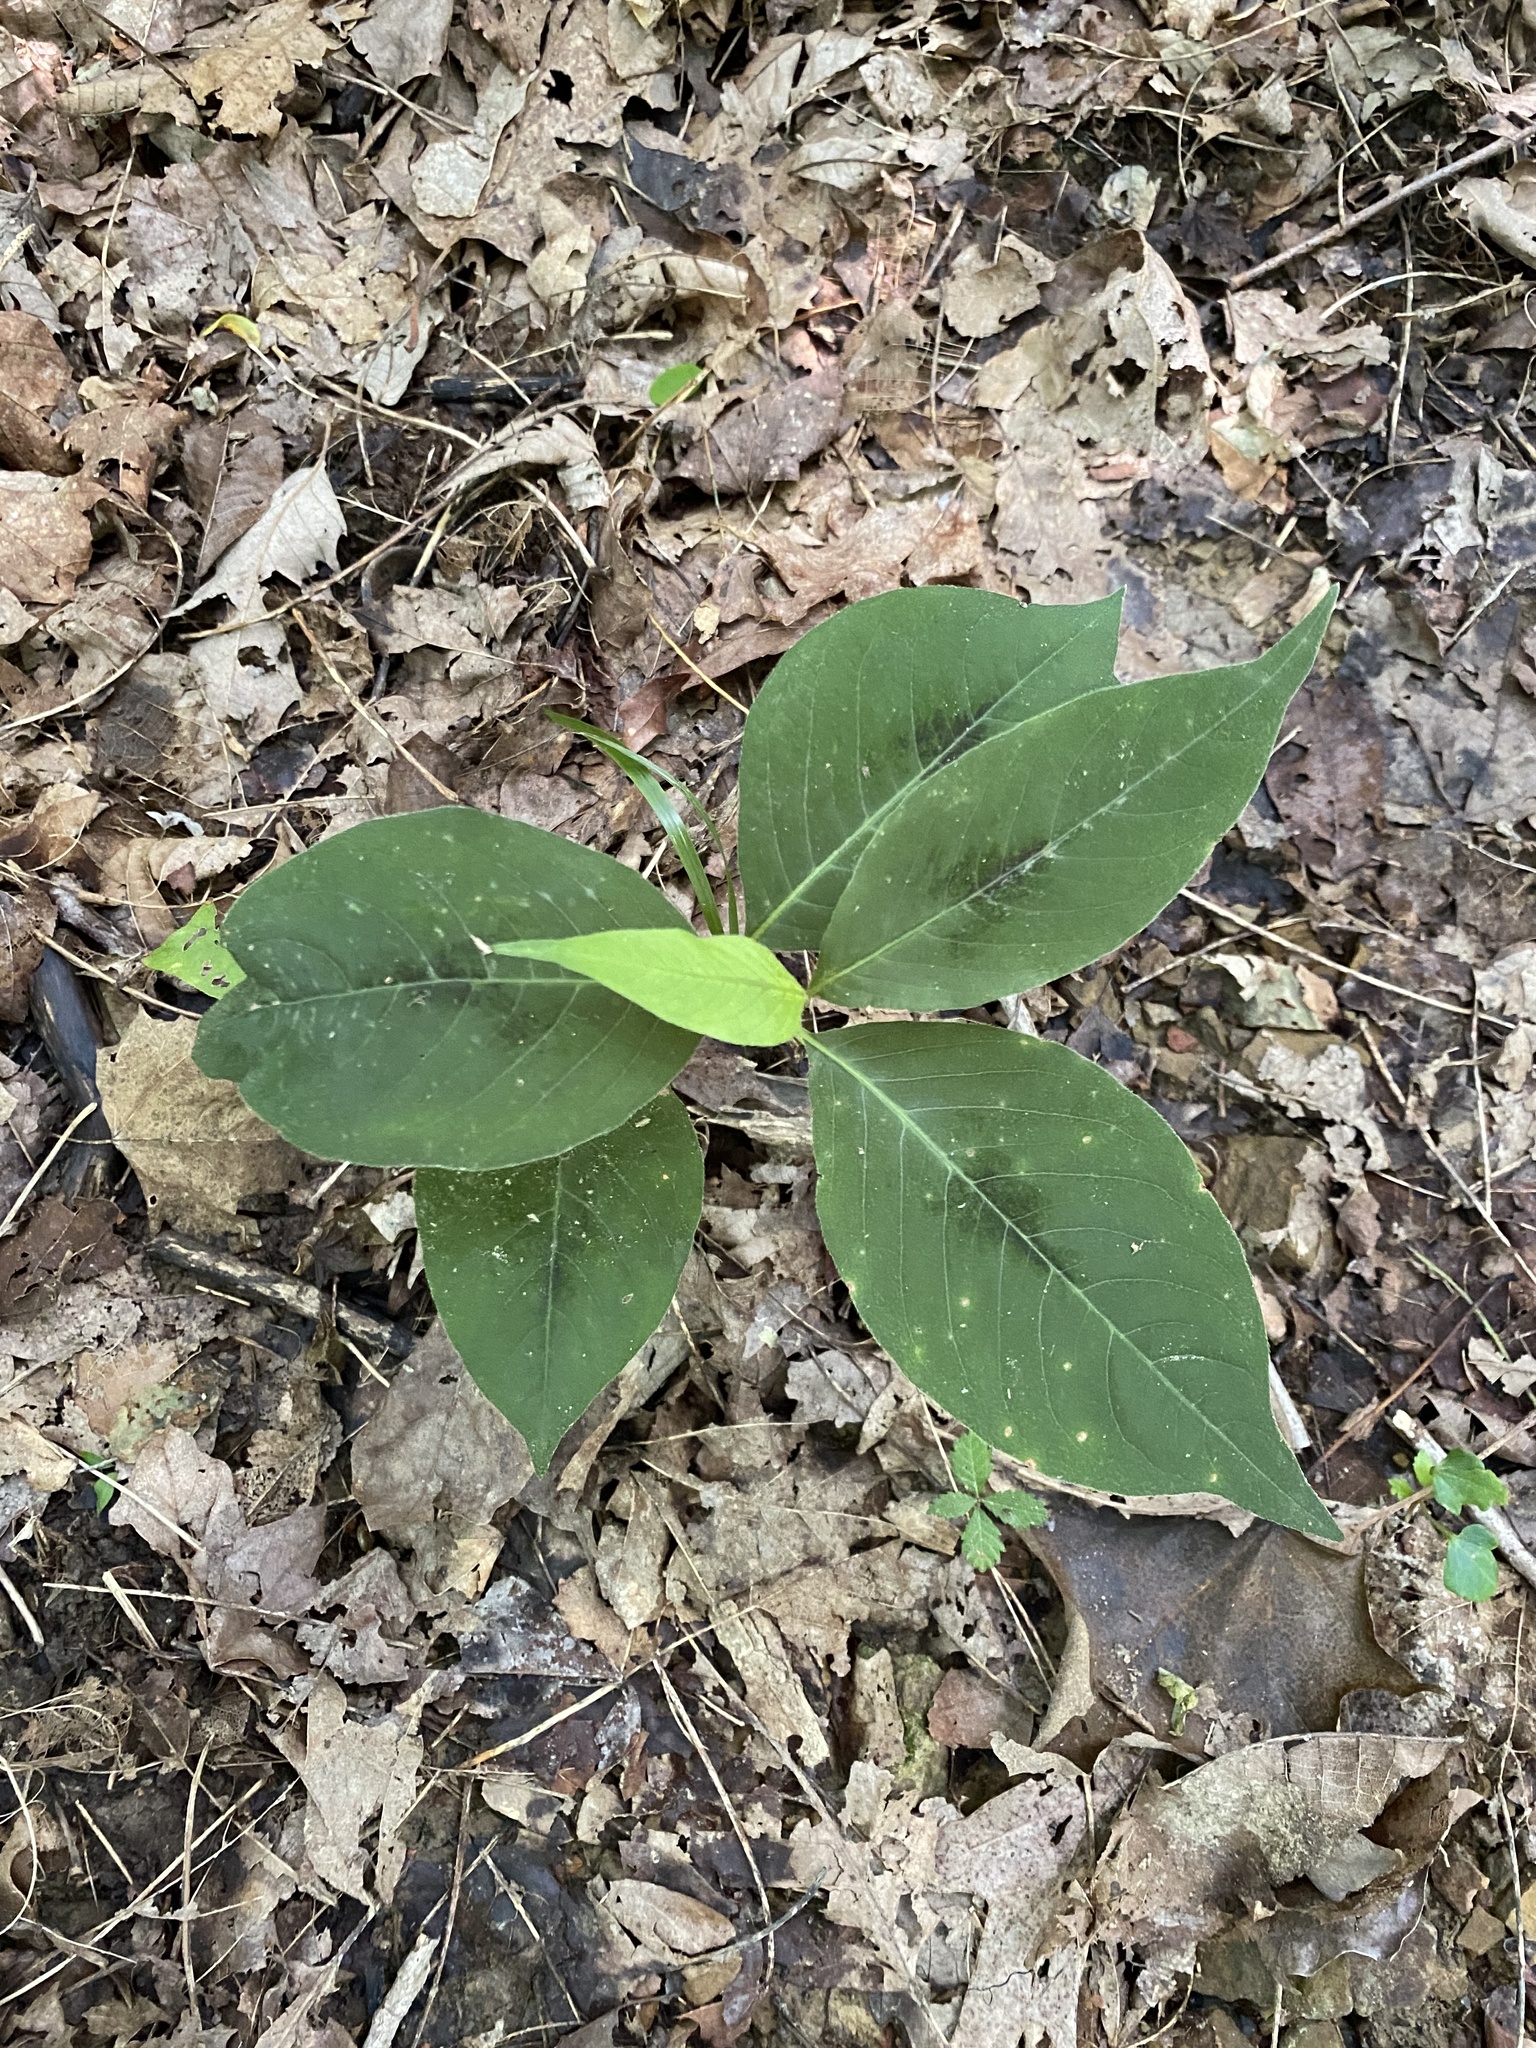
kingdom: Plantae
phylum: Tracheophyta
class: Magnoliopsida
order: Caryophyllales
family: Polygonaceae
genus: Persicaria
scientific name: Persicaria virginiana
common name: Jumpseed
